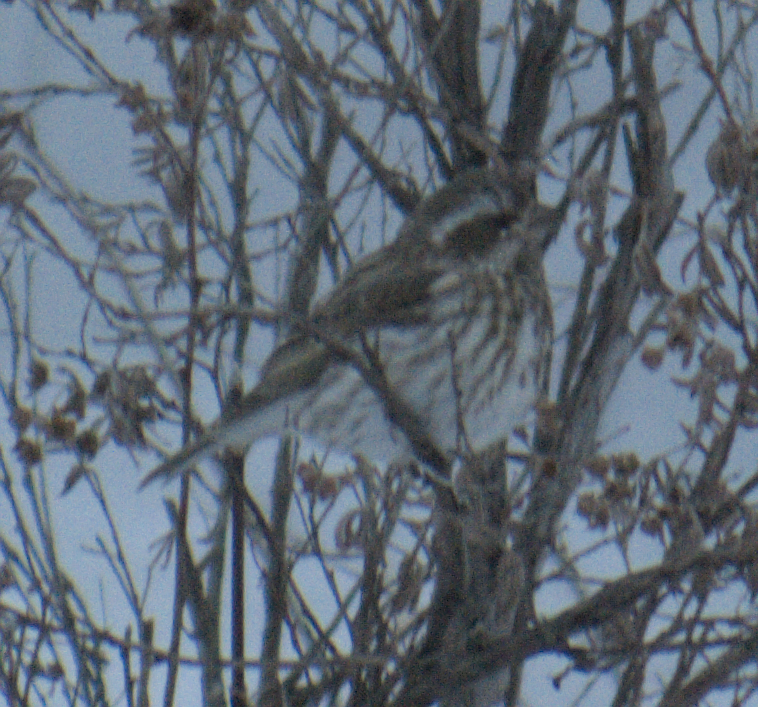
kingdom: Animalia
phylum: Chordata
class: Aves
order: Passeriformes
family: Fringillidae
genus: Haemorhous
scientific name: Haemorhous purpureus
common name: Purple finch
